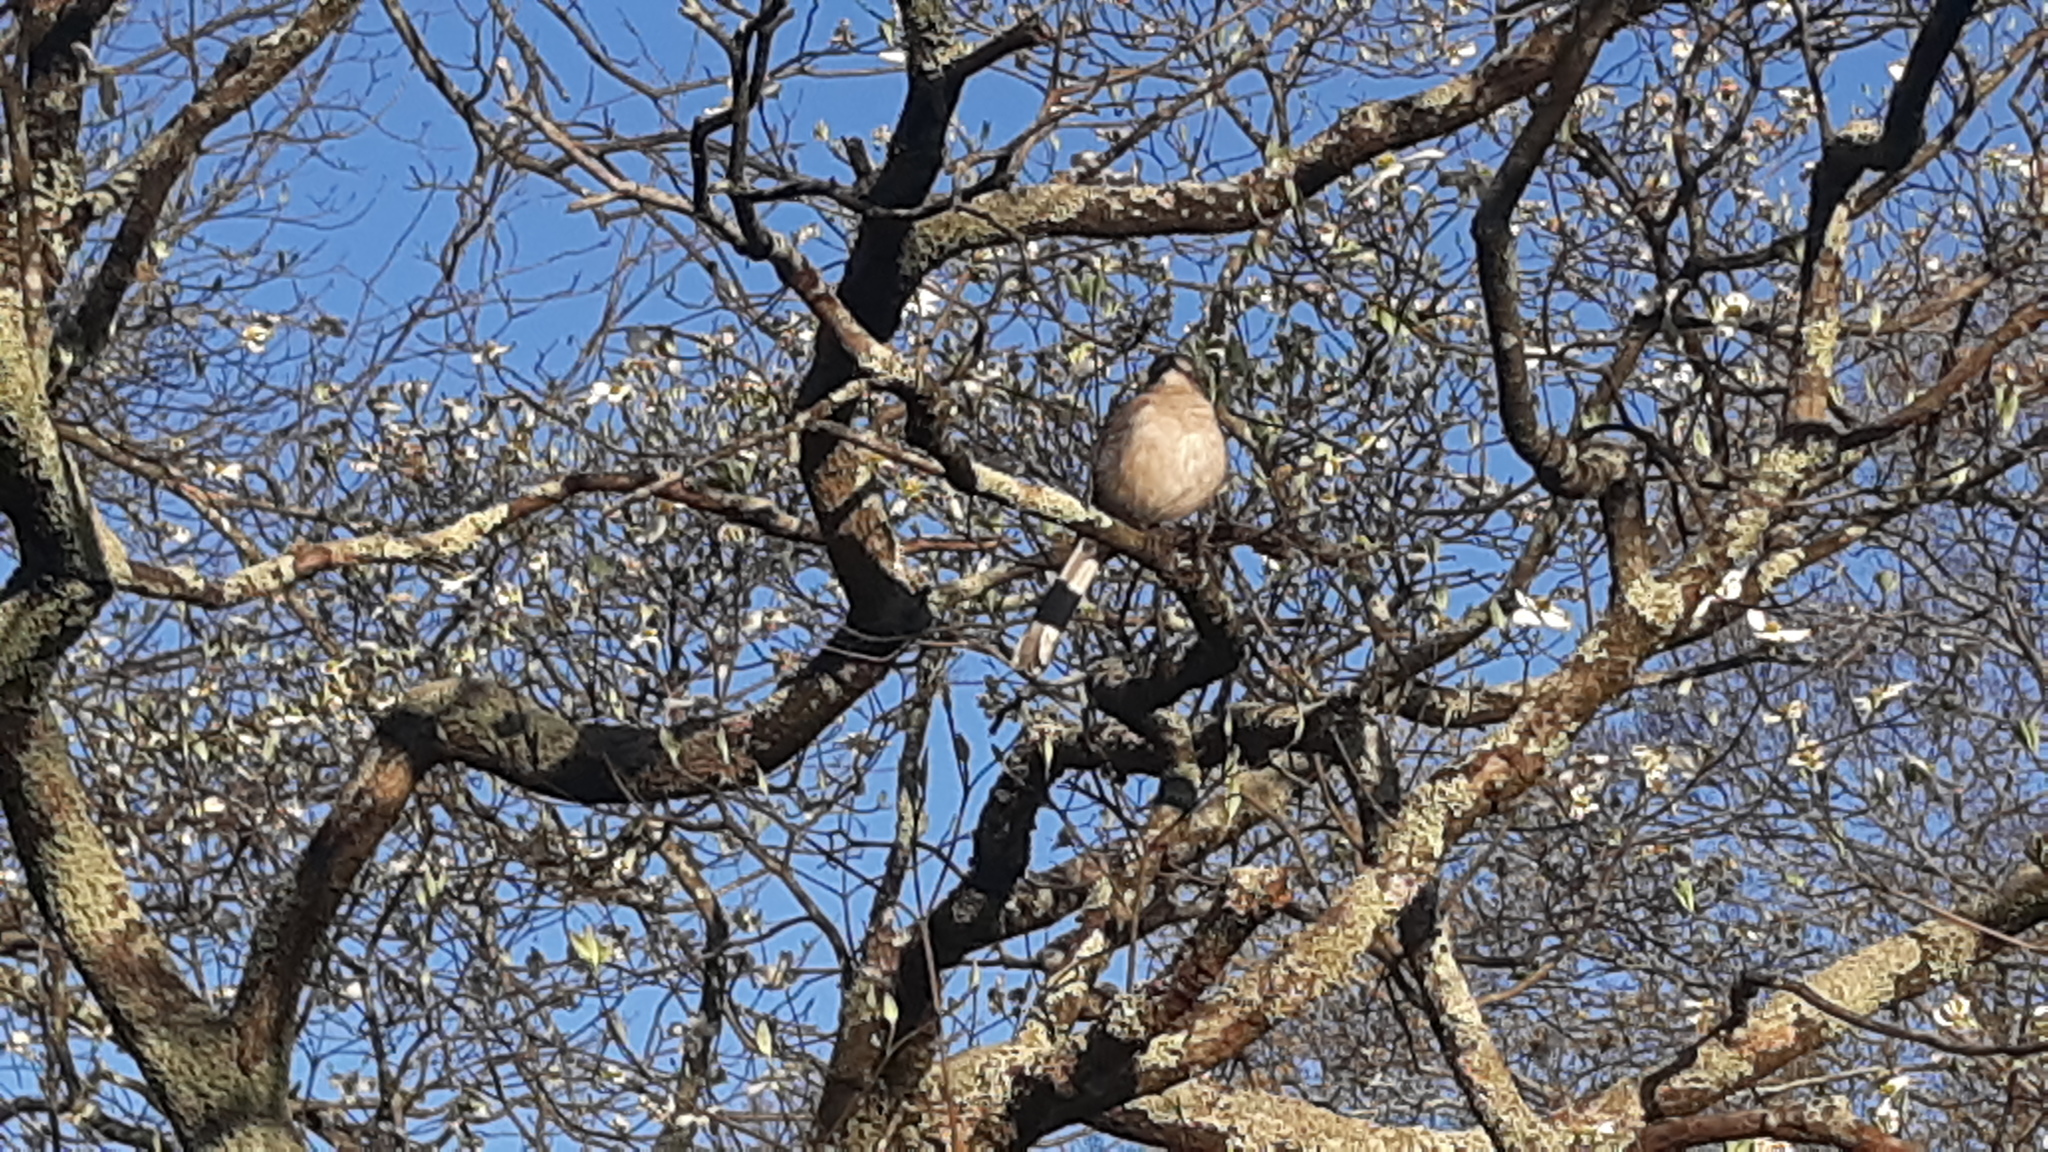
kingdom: Animalia
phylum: Chordata
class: Aves
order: Passeriformes
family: Mimidae
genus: Mimus
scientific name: Mimus polyglottos
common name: Northern mockingbird
